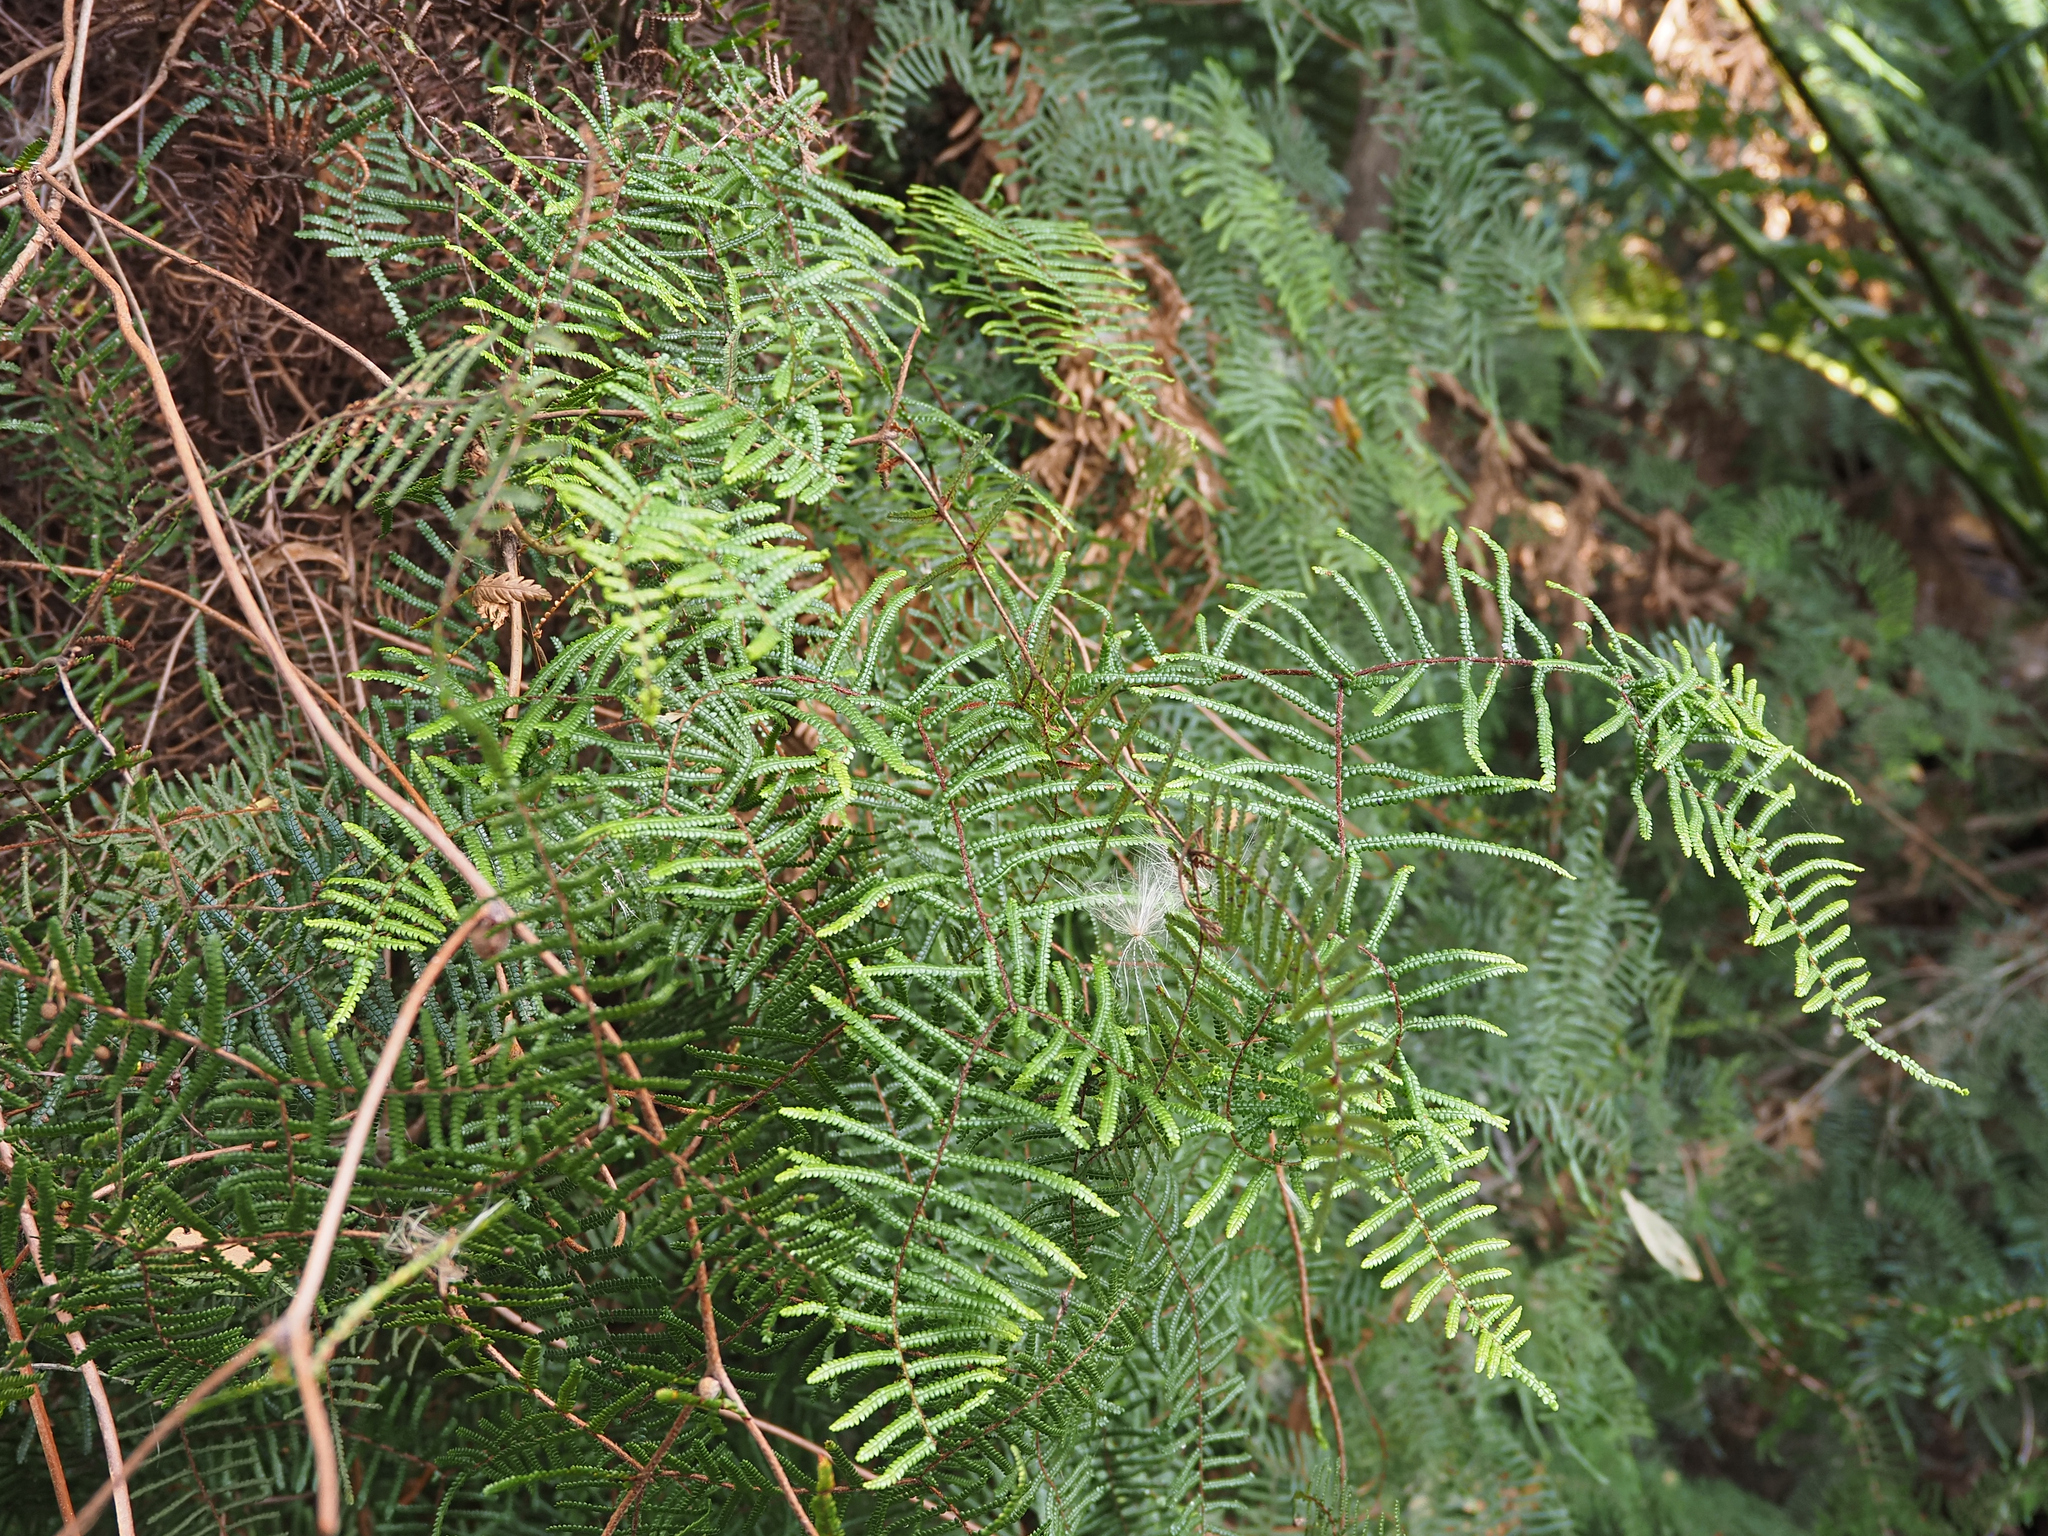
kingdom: Plantae
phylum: Tracheophyta
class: Polypodiopsida
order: Gleicheniales
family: Gleicheniaceae
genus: Gleichenia
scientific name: Gleichenia microphylla
